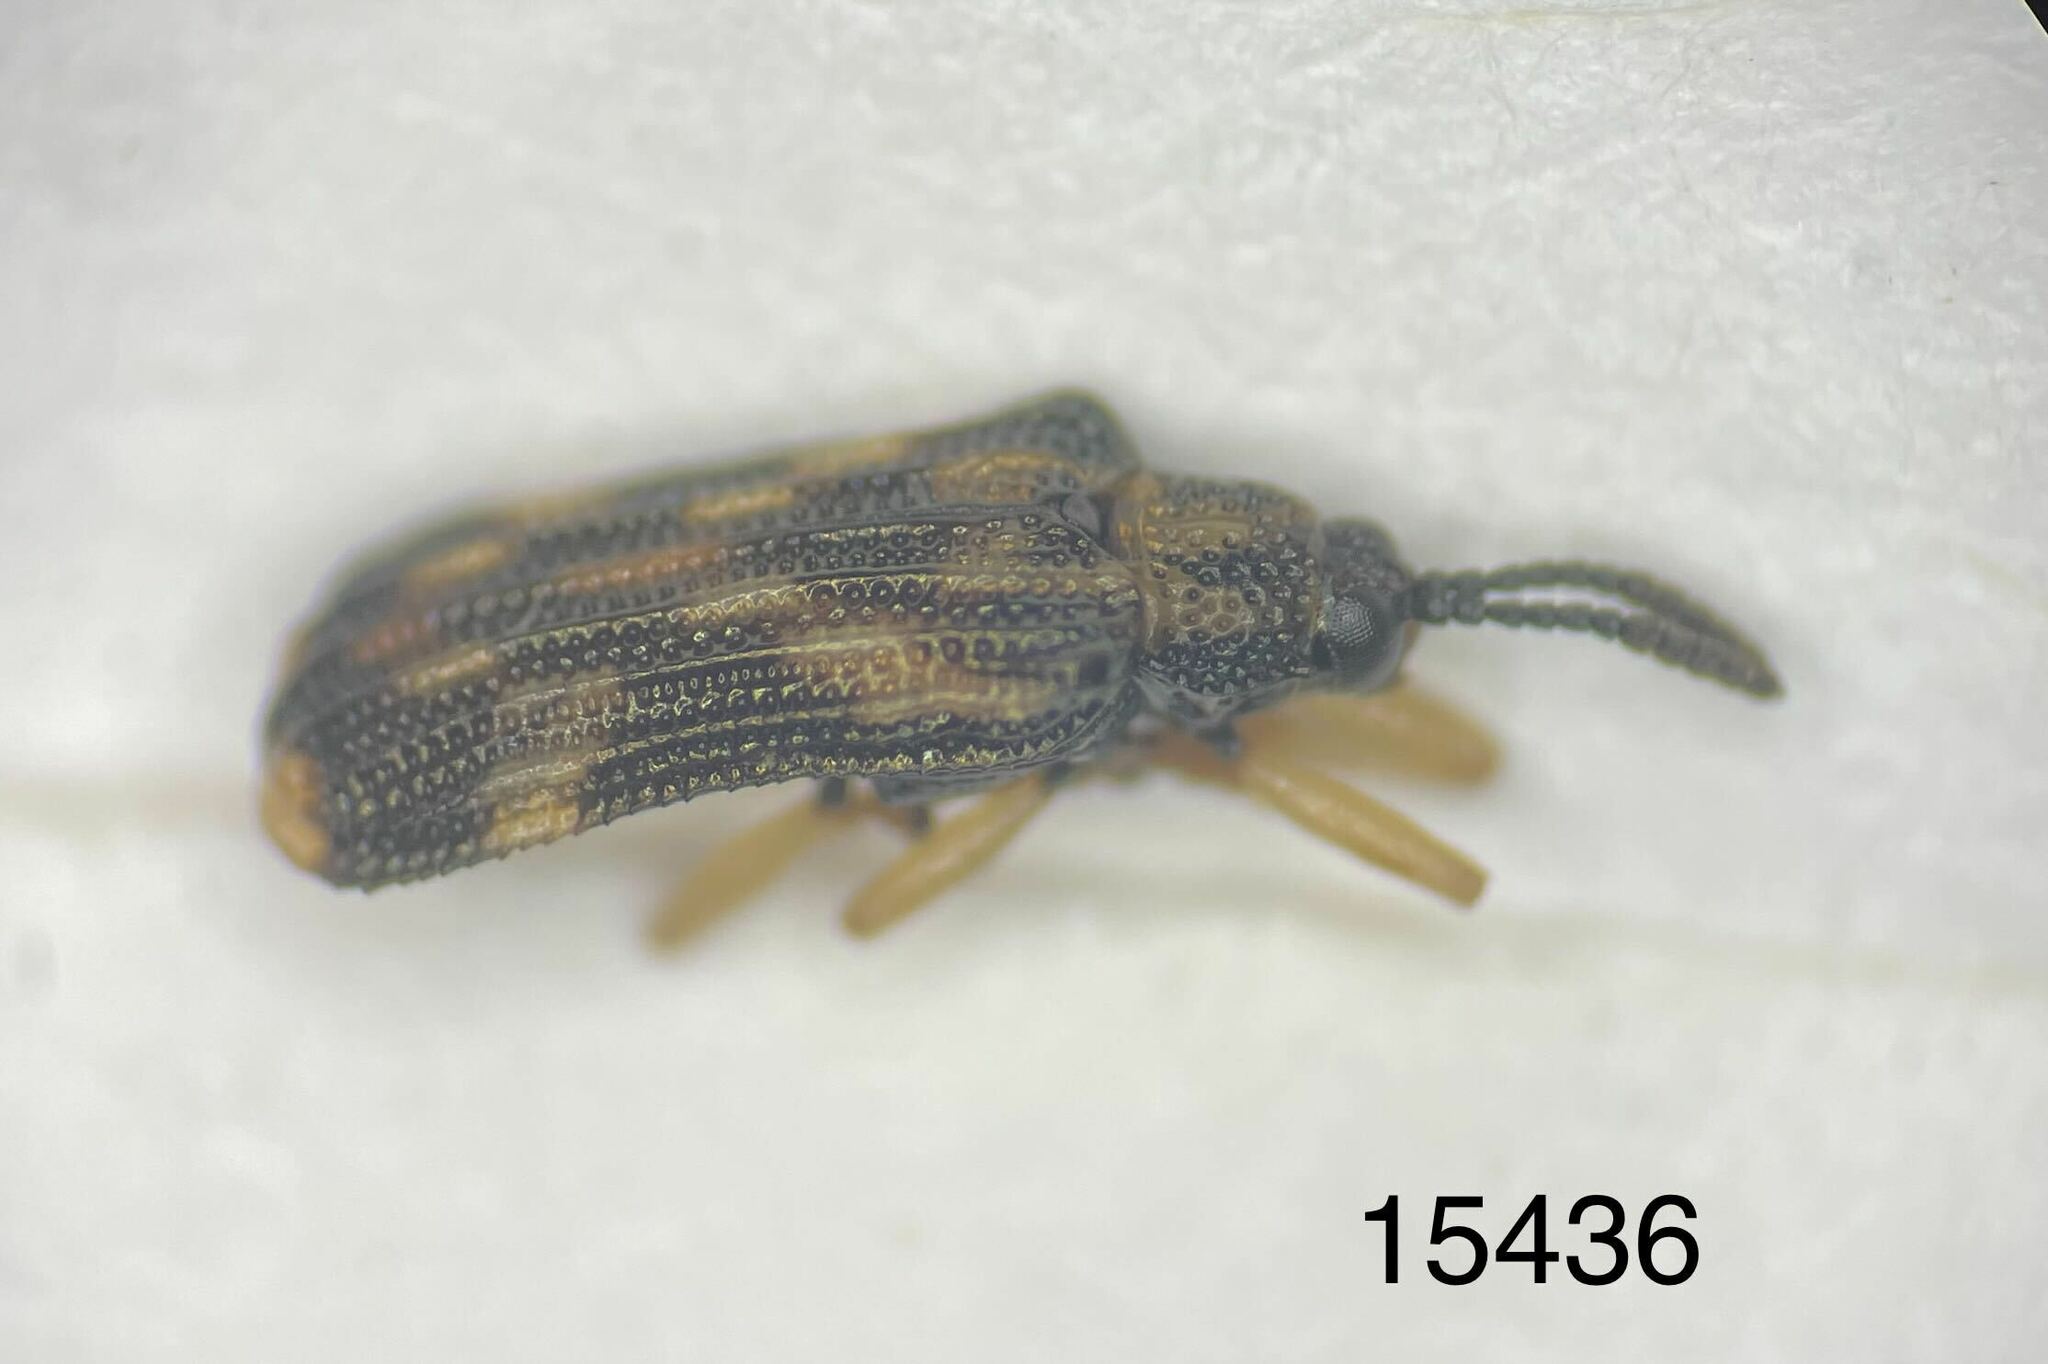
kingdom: Animalia
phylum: Arthropoda
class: Insecta
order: Coleoptera
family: Chrysomelidae
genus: Sumitrosis
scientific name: Sumitrosis inaequalis
